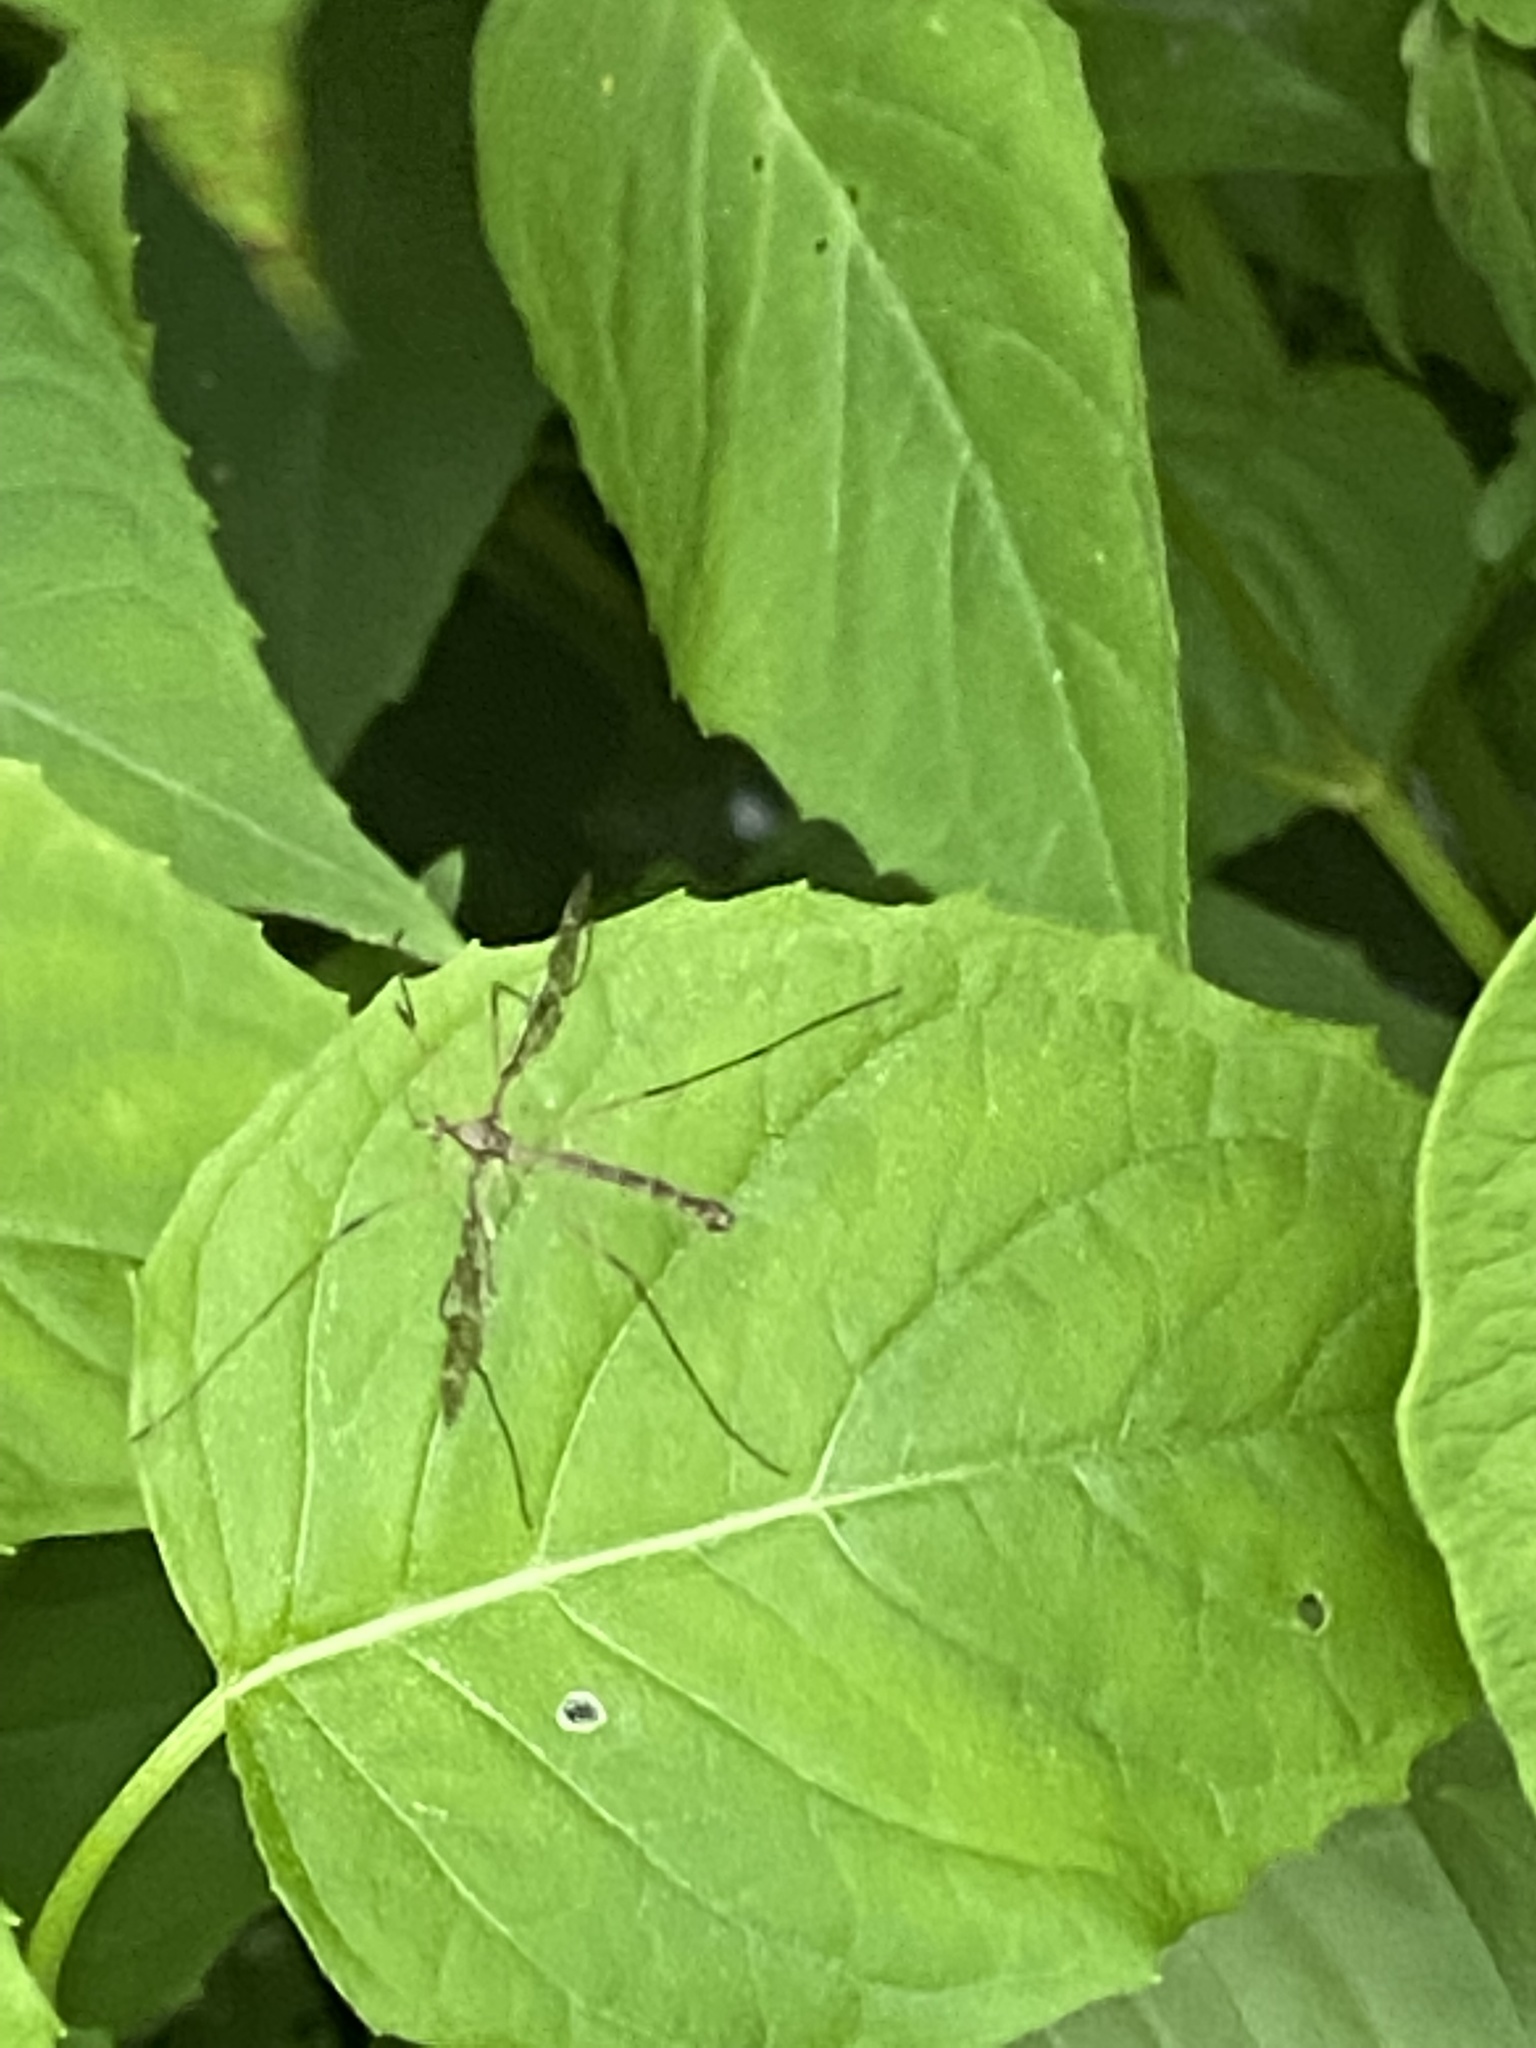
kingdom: Animalia
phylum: Arthropoda
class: Insecta
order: Diptera
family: Limoniidae
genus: Epiphragma
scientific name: Epiphragma fasciapenne
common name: Band-winged crane fly
